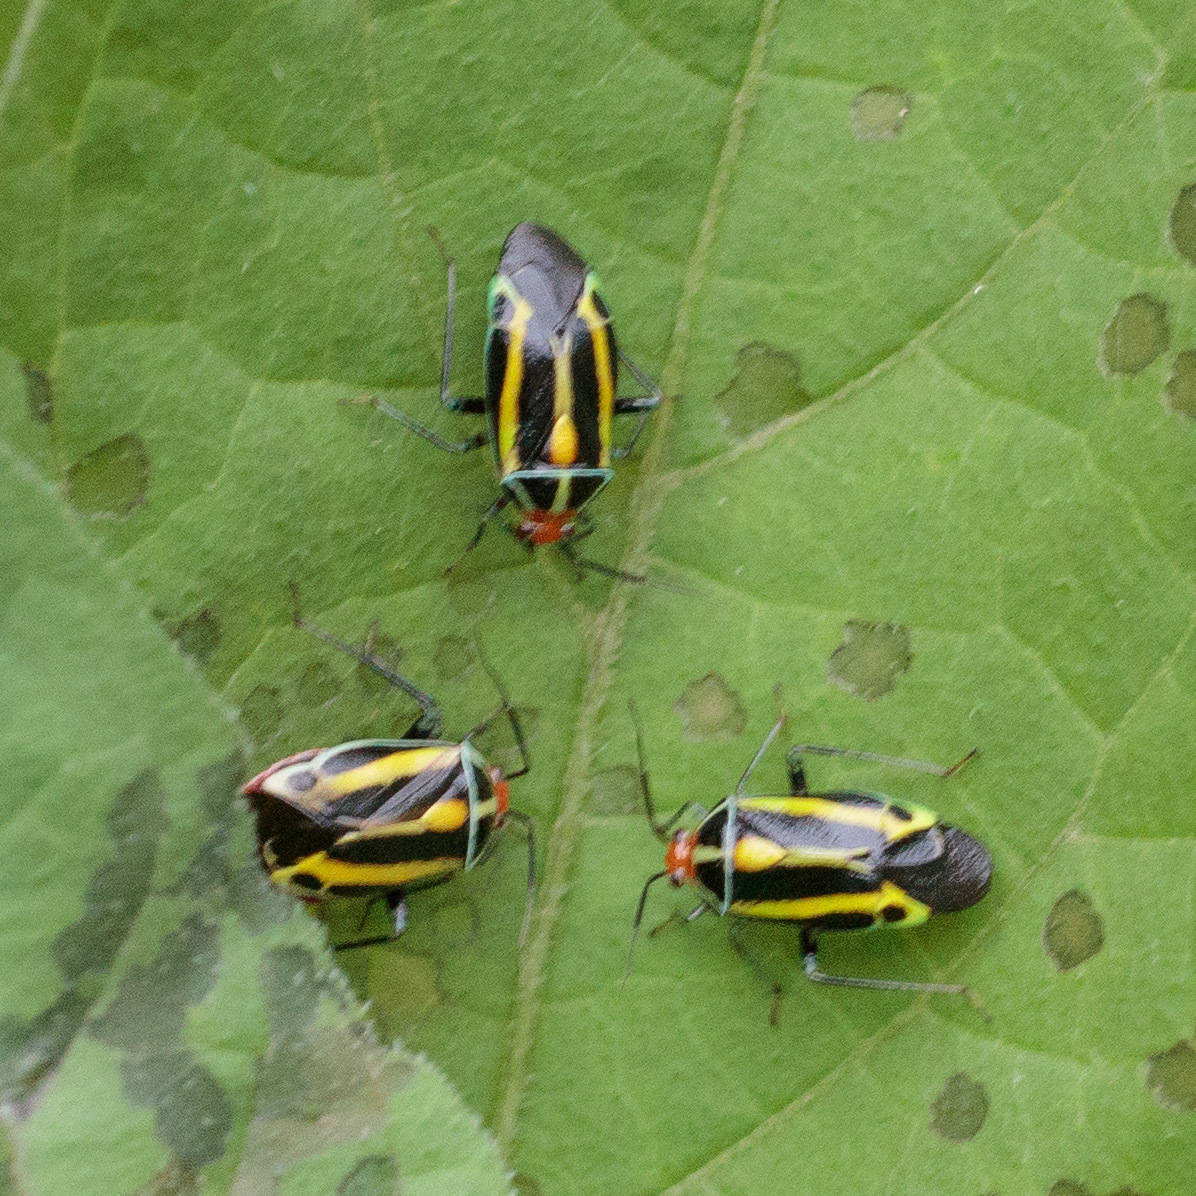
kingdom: Animalia
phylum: Arthropoda
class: Insecta
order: Hemiptera
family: Miridae
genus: Poecilocapsus
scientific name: Poecilocapsus lineatus
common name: Four-lined plant bug
